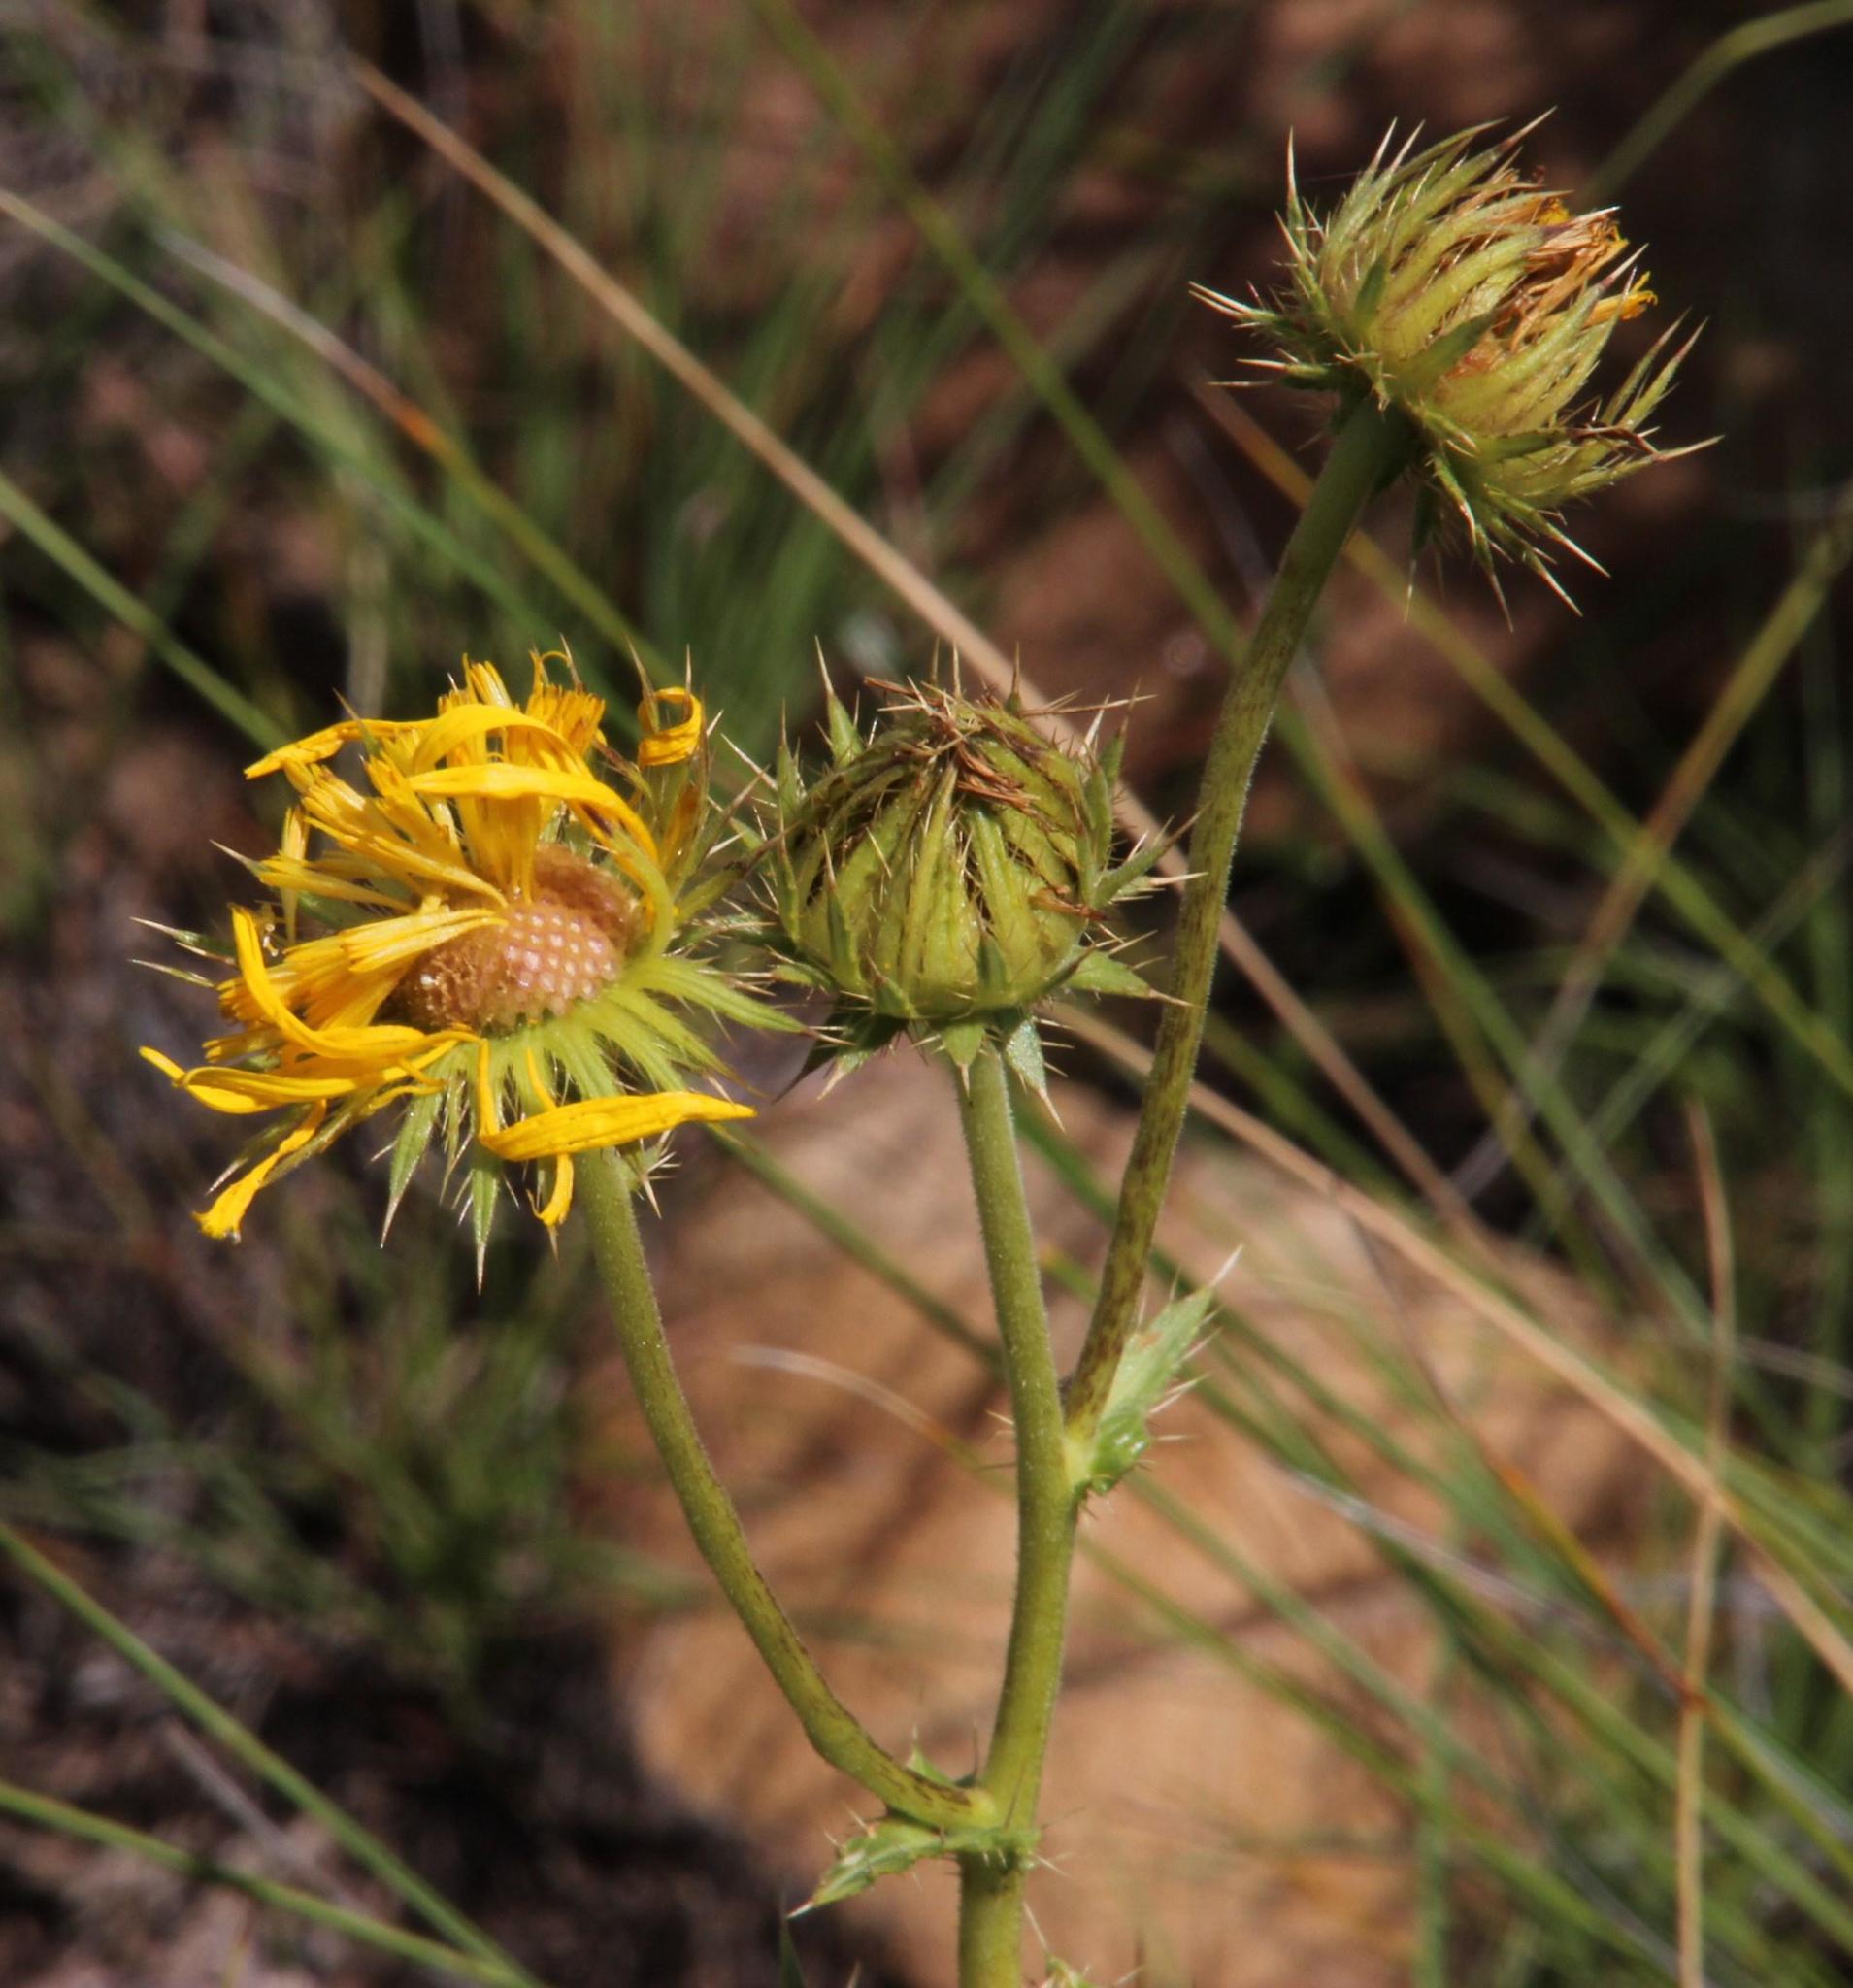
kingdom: Plantae
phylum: Tracheophyta
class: Magnoliopsida
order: Asterales
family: Asteraceae
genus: Berkheya
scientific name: Berkheya discolor
